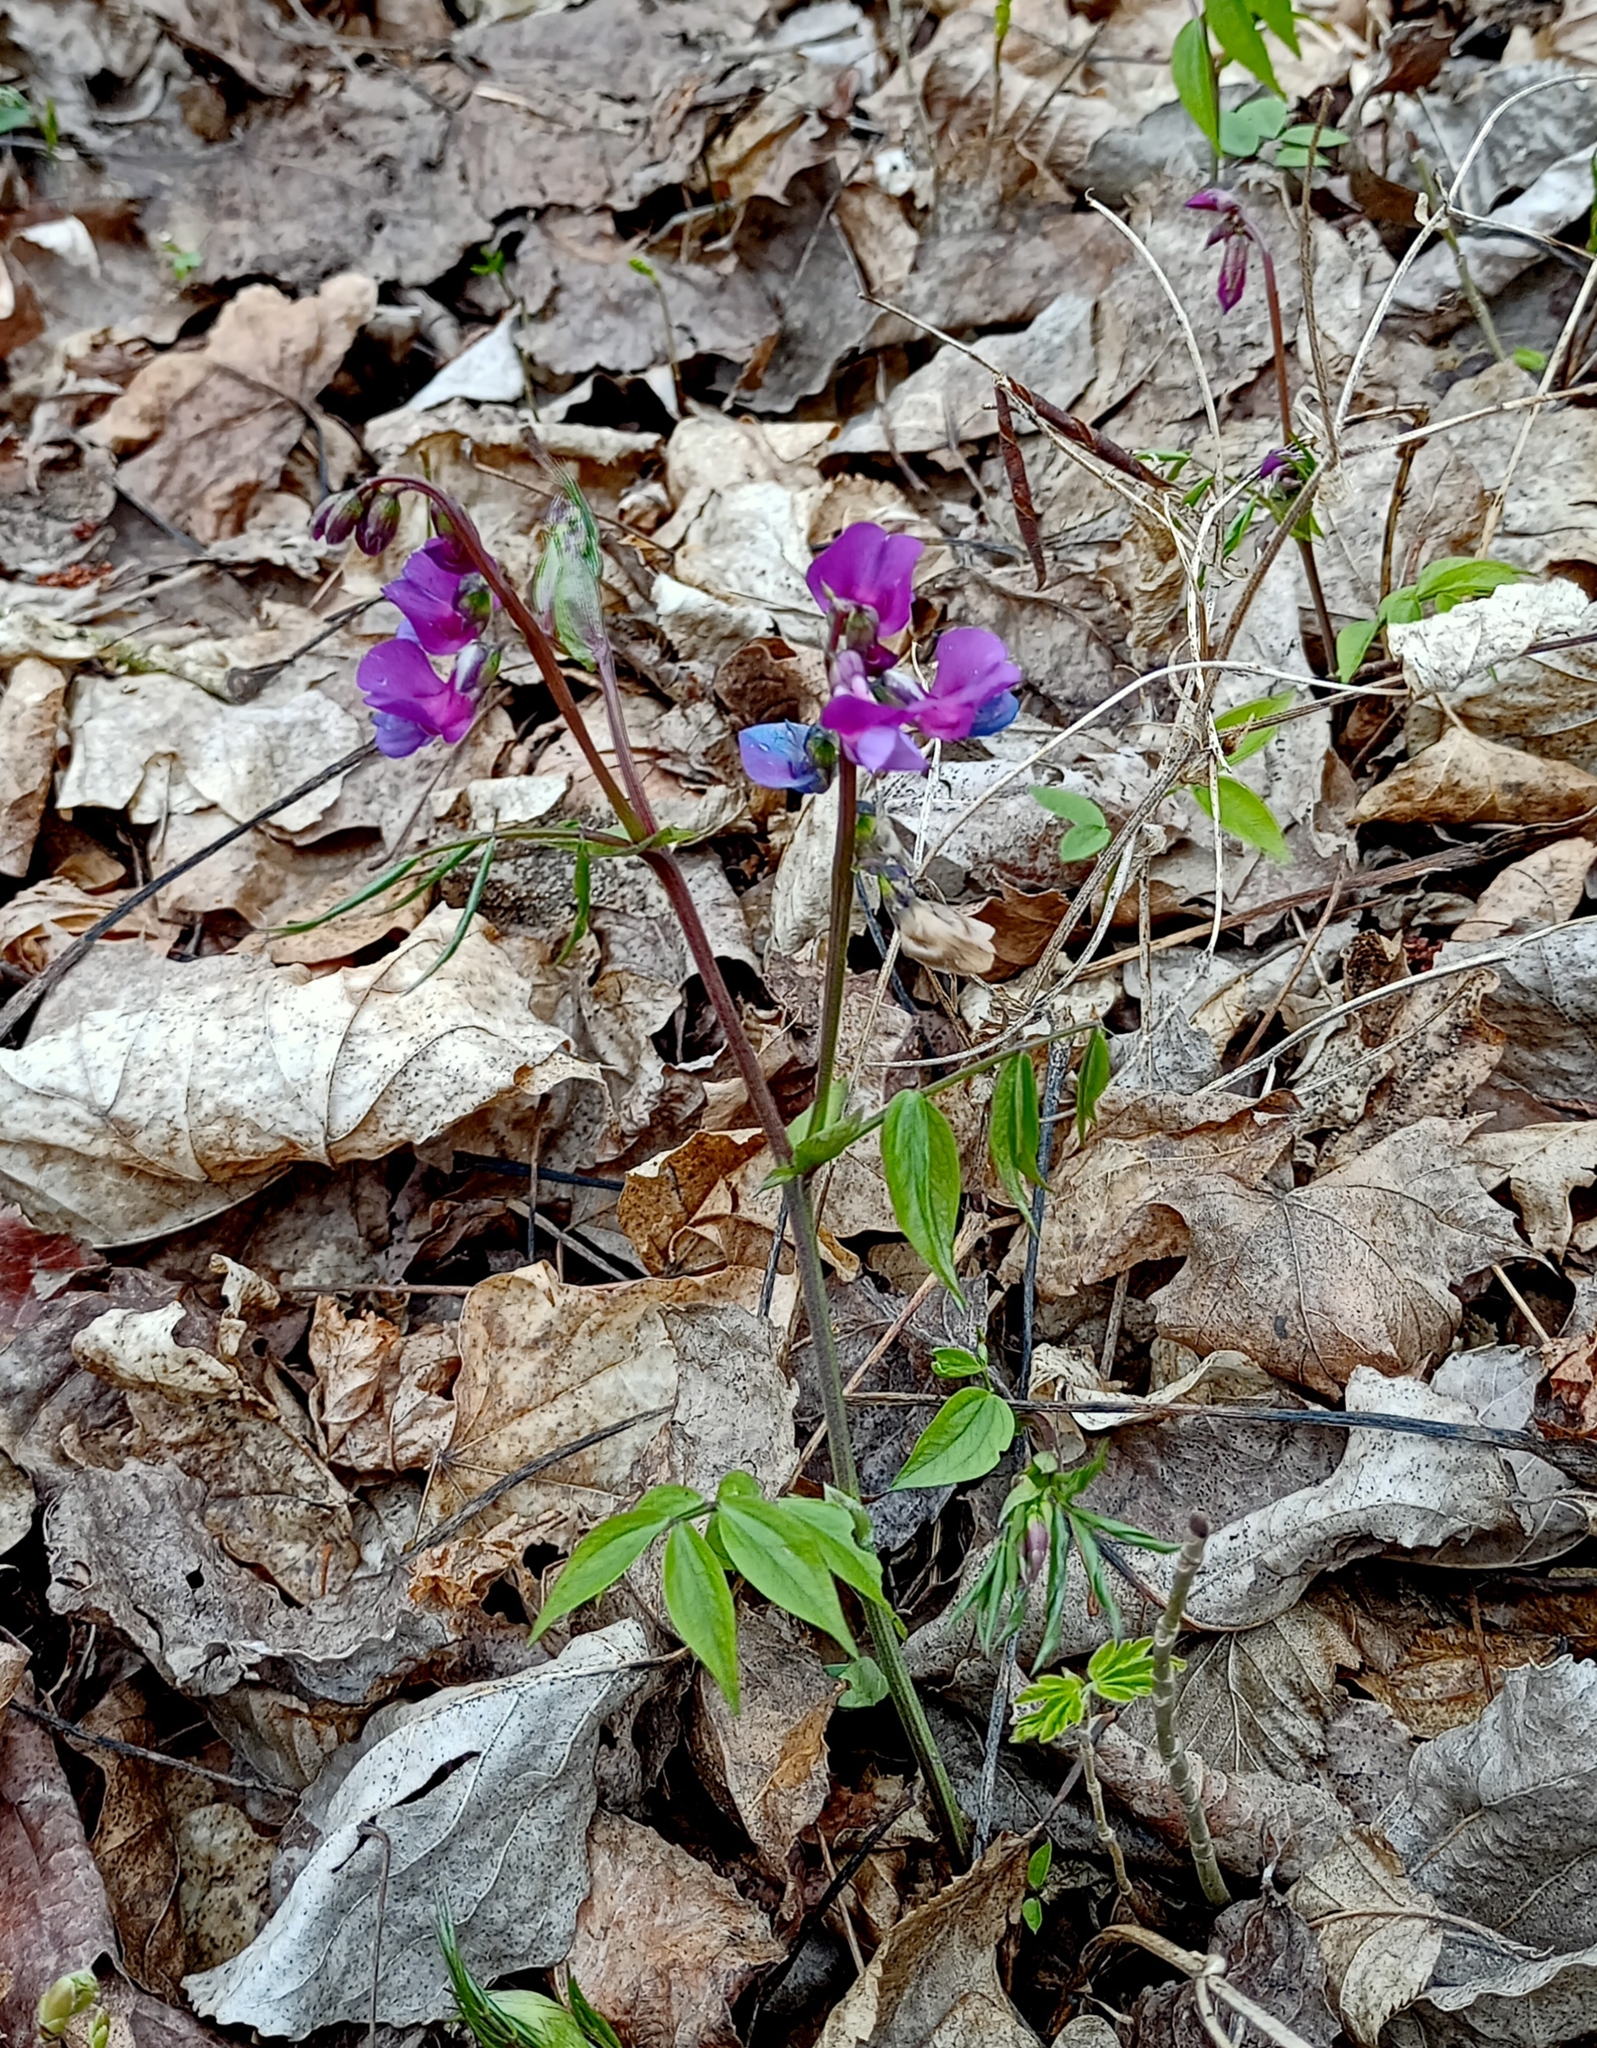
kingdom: Plantae
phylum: Tracheophyta
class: Magnoliopsida
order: Fabales
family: Fabaceae
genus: Lathyrus
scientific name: Lathyrus vernus
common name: Spring pea
